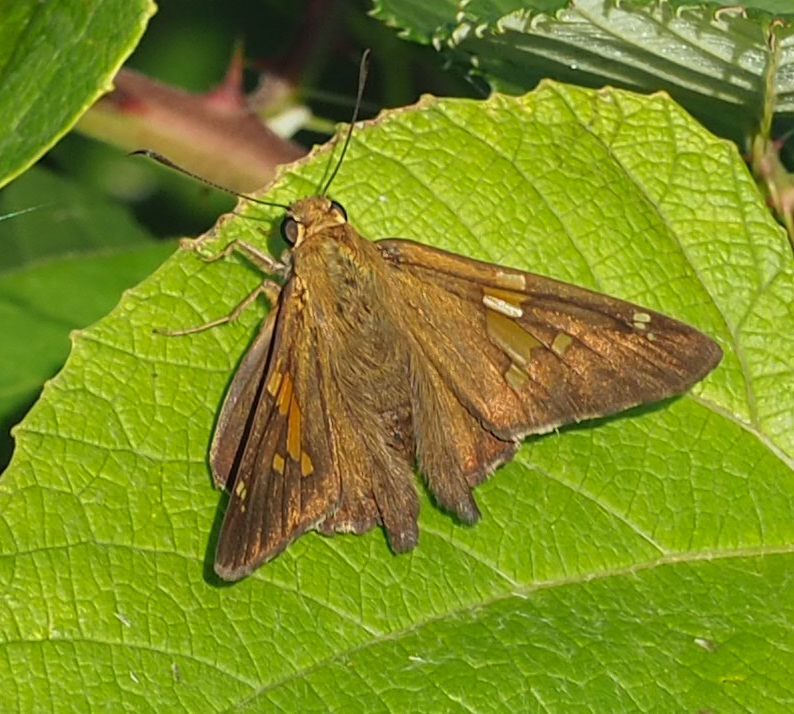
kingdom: Animalia
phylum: Arthropoda
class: Insecta
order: Lepidoptera
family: Hesperiidae
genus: Epargyreus
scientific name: Epargyreus clarus
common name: Silver-spotted skipper
